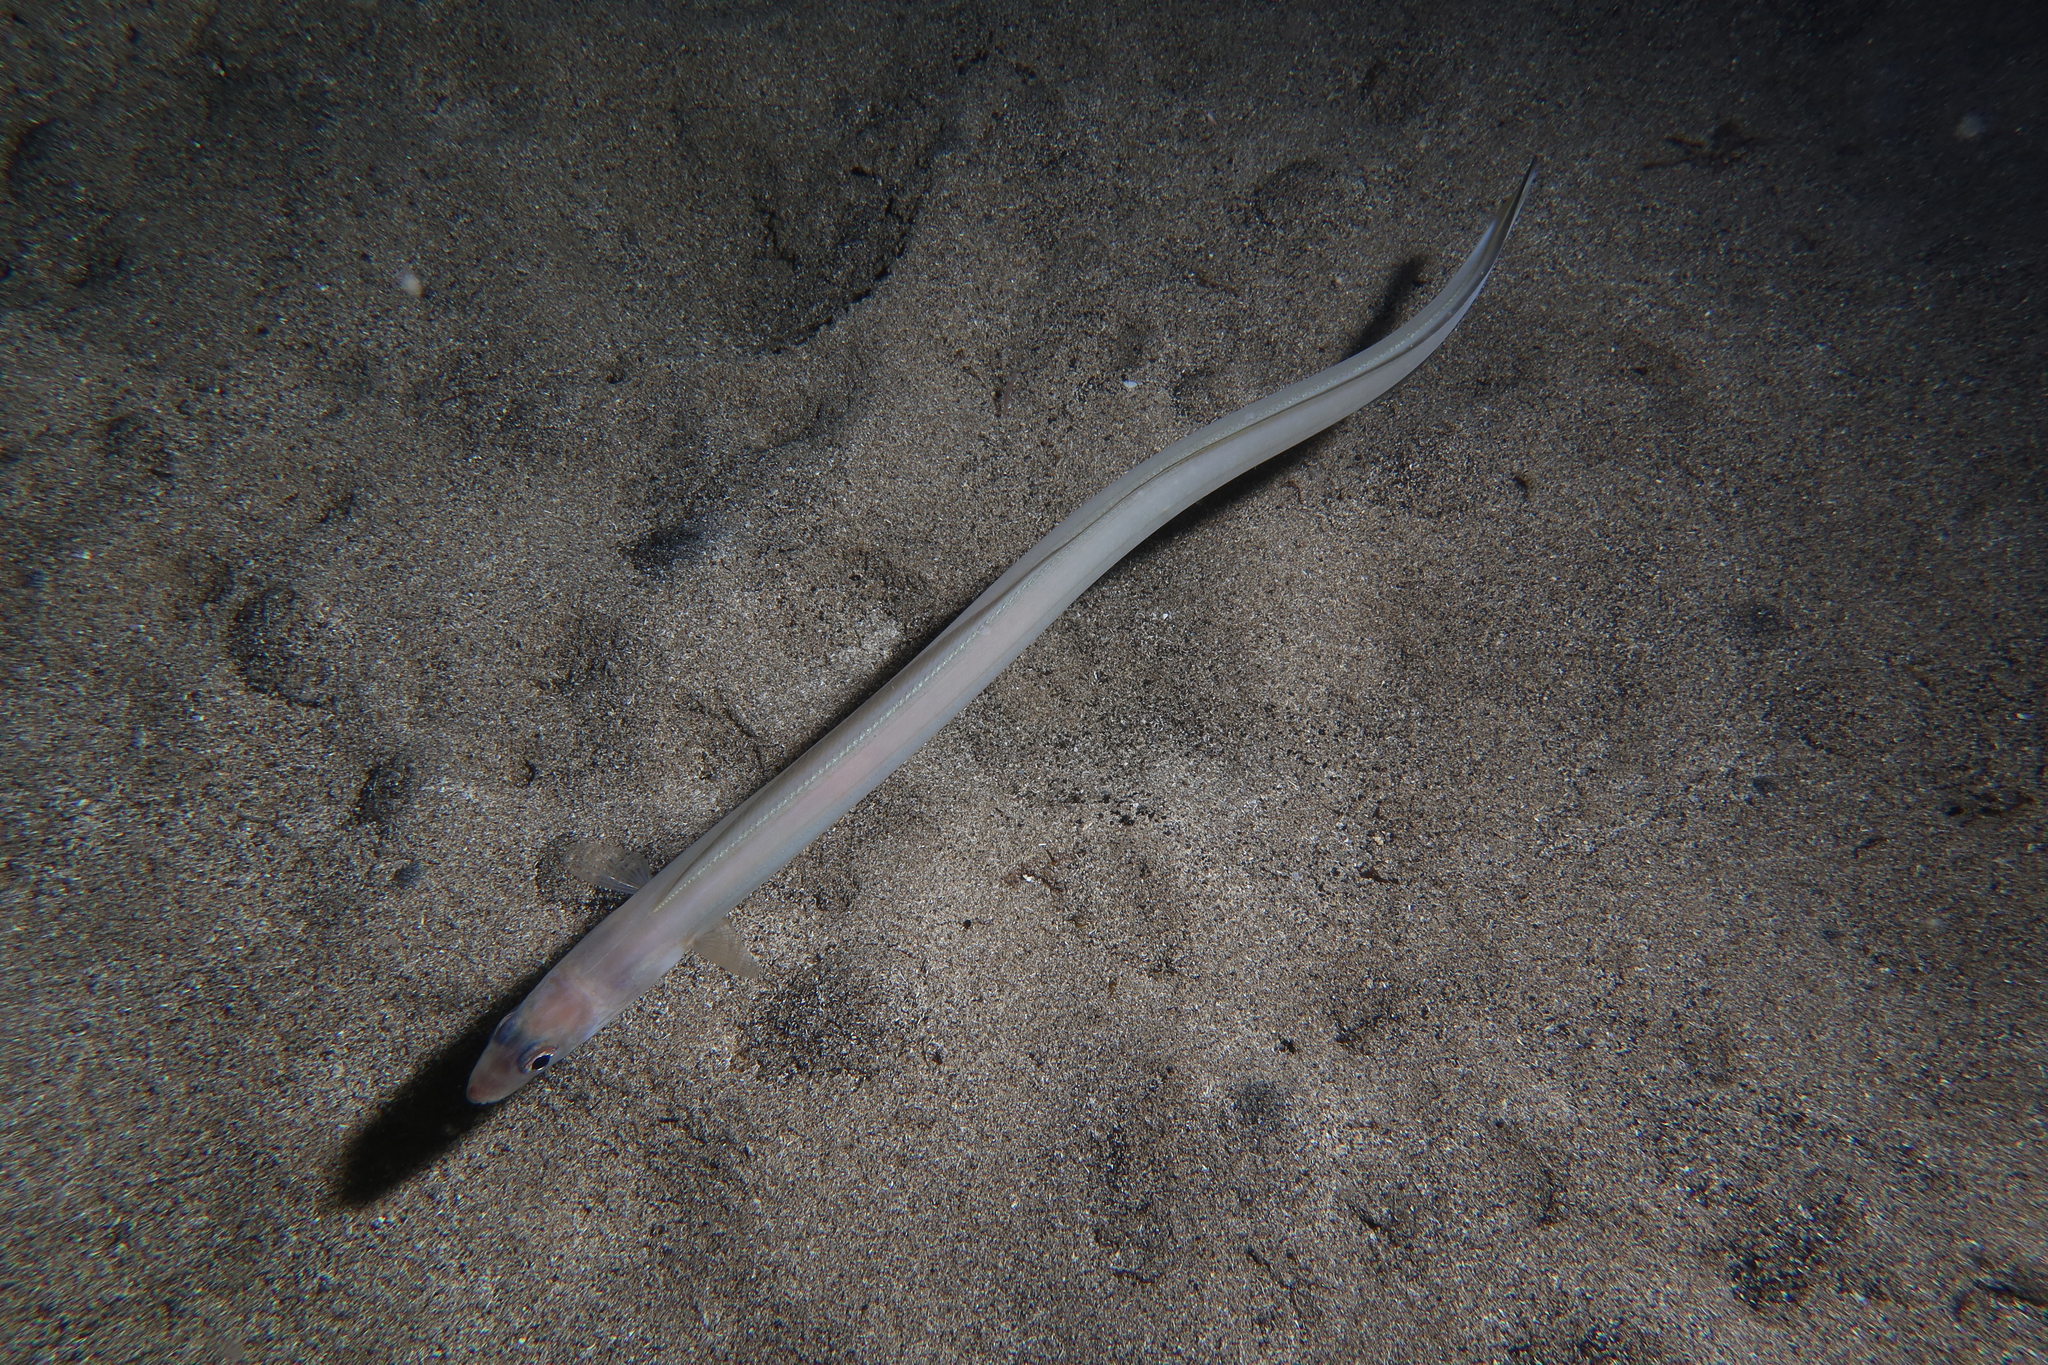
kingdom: Animalia
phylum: Chordata
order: Anguilliformes
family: Congridae
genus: Ariosoma
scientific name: Ariosoma balearicum
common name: Bandtooth conger
